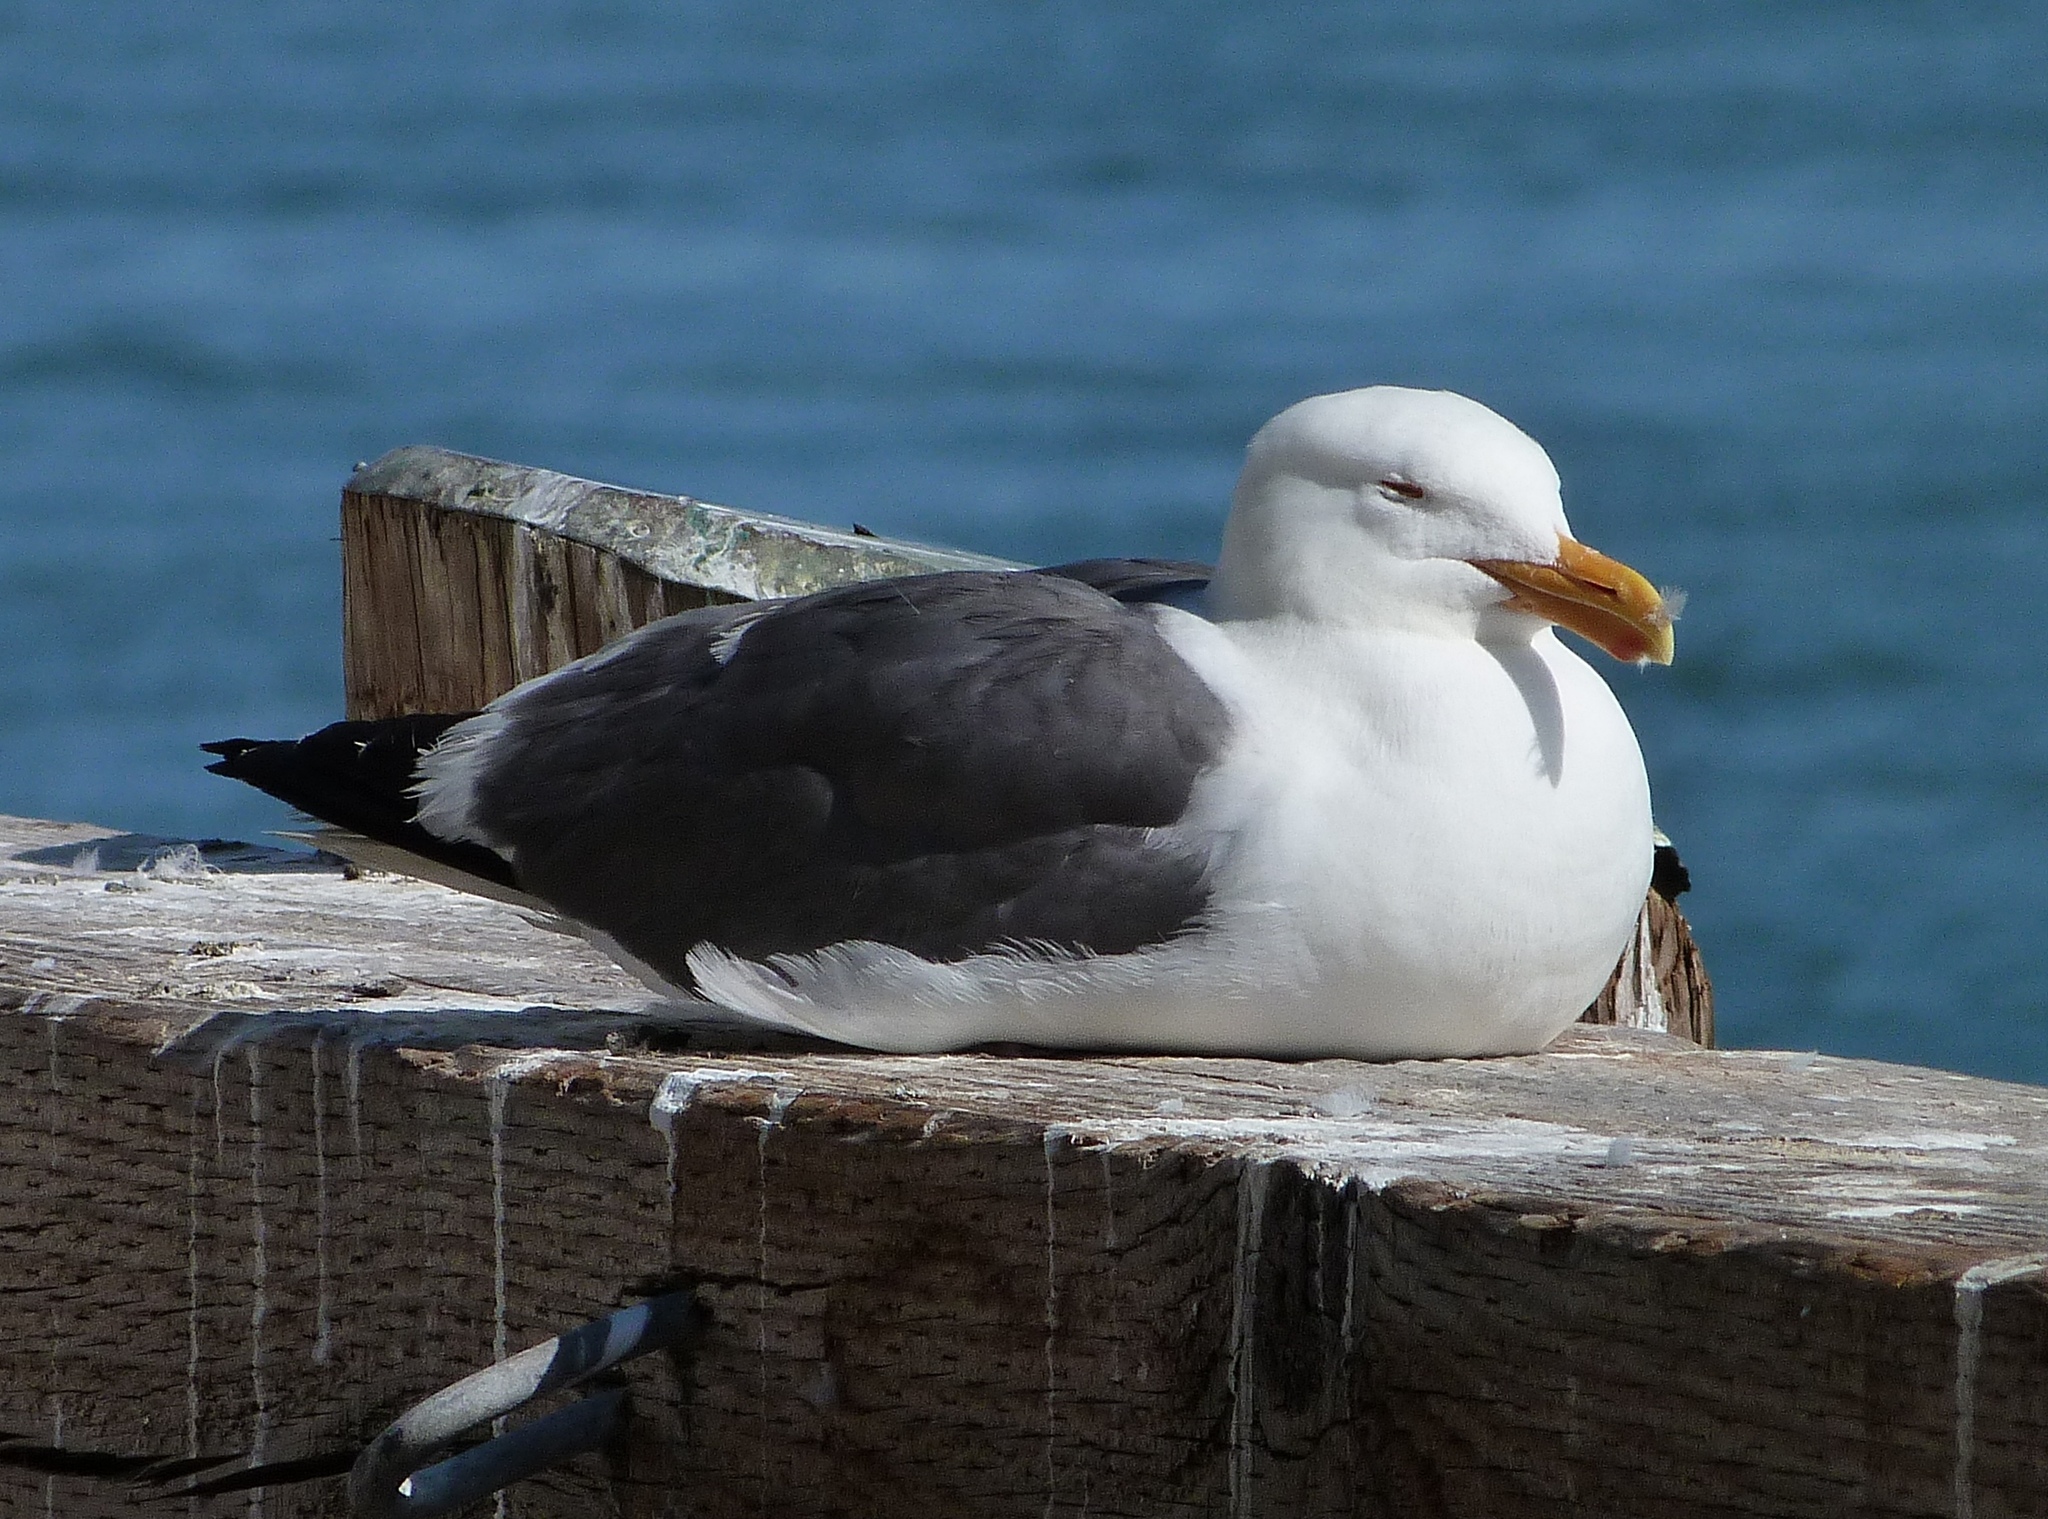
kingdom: Animalia
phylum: Chordata
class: Aves
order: Charadriiformes
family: Laridae
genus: Larus
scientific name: Larus occidentalis
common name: Western gull
